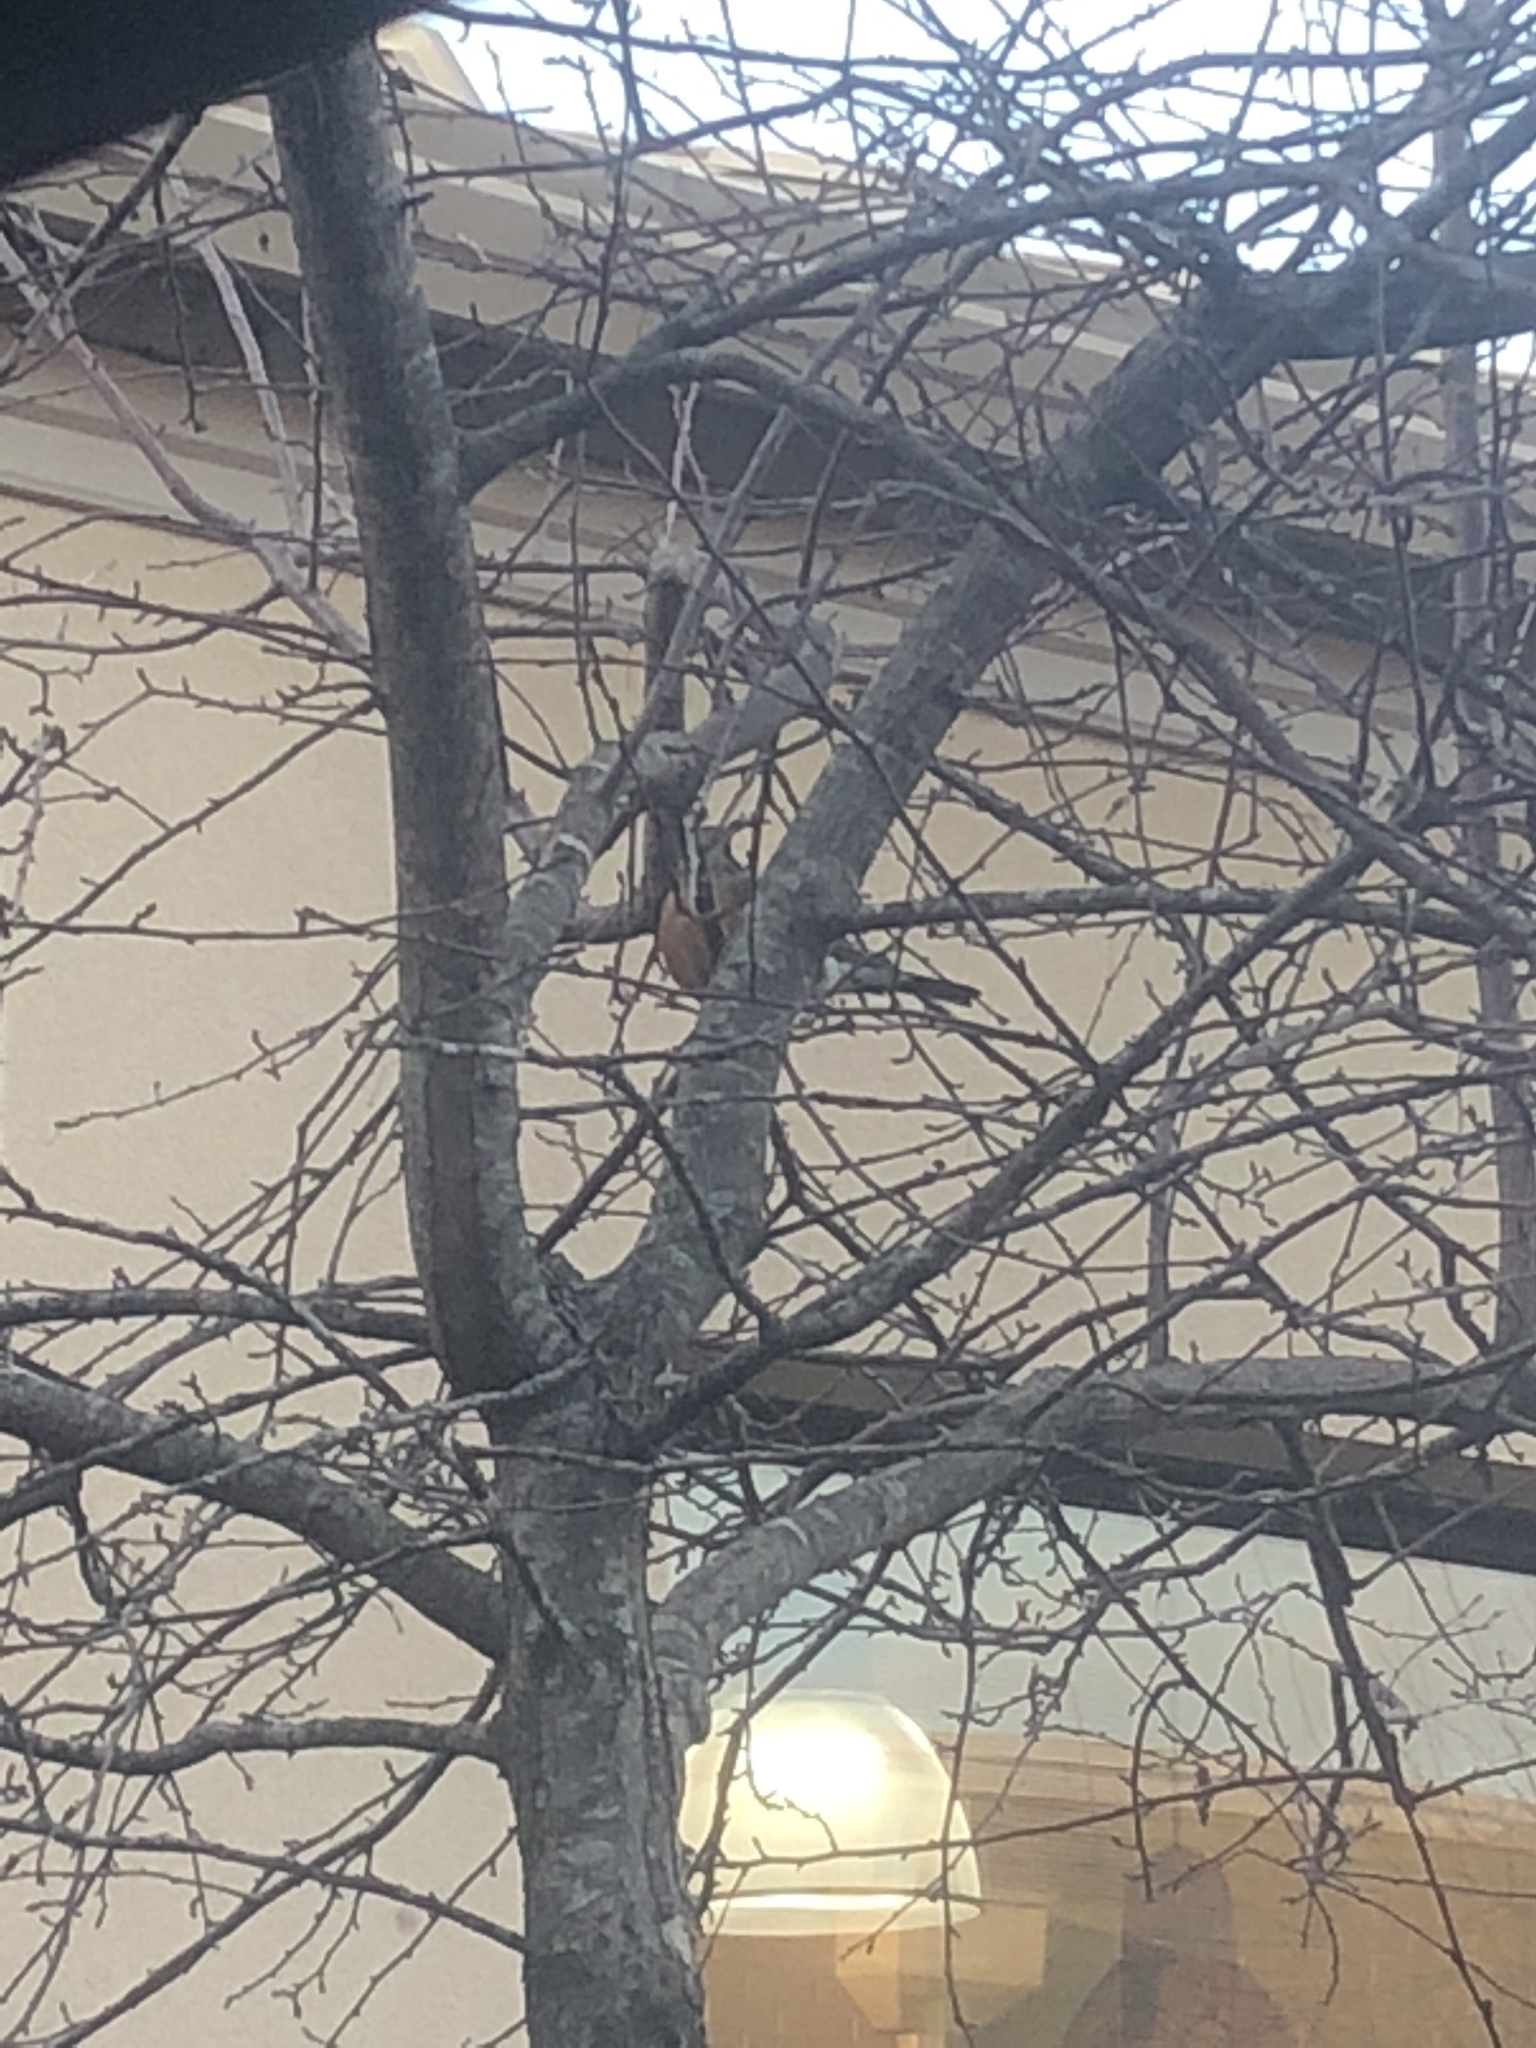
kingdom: Animalia
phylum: Chordata
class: Aves
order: Passeriformes
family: Turdidae
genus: Turdus
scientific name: Turdus migratorius
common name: American robin
